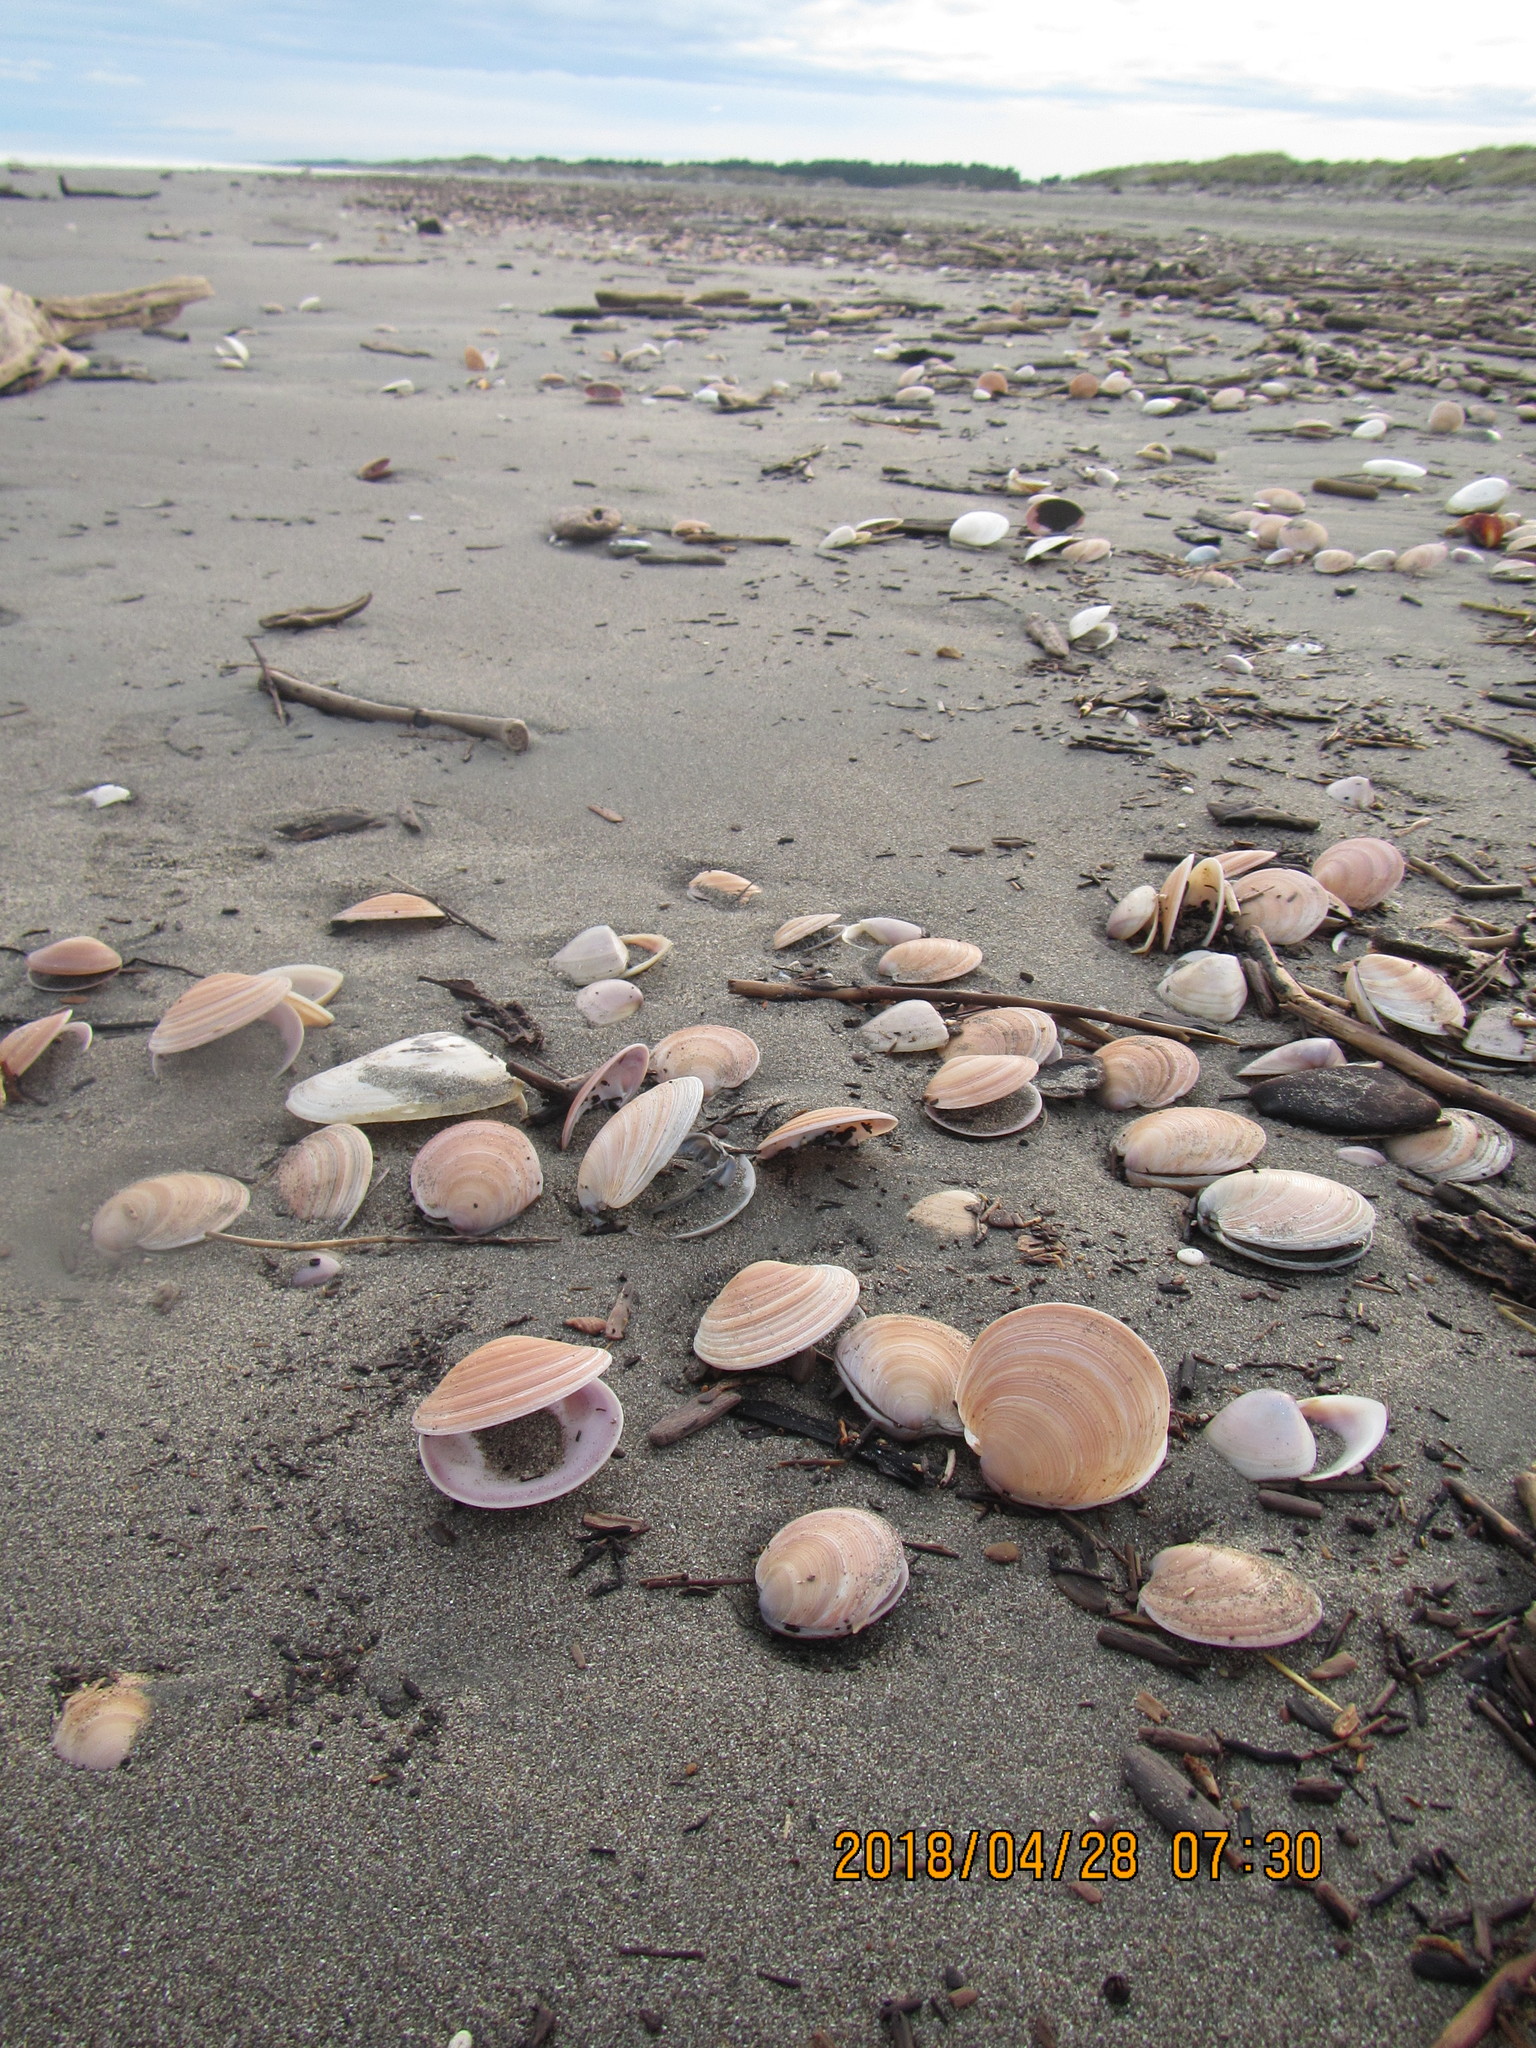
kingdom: Animalia
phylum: Mollusca
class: Bivalvia
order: Venerida
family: Veneridae
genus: Dosinia
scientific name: Dosinia anus
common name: Old-woman dosinia
